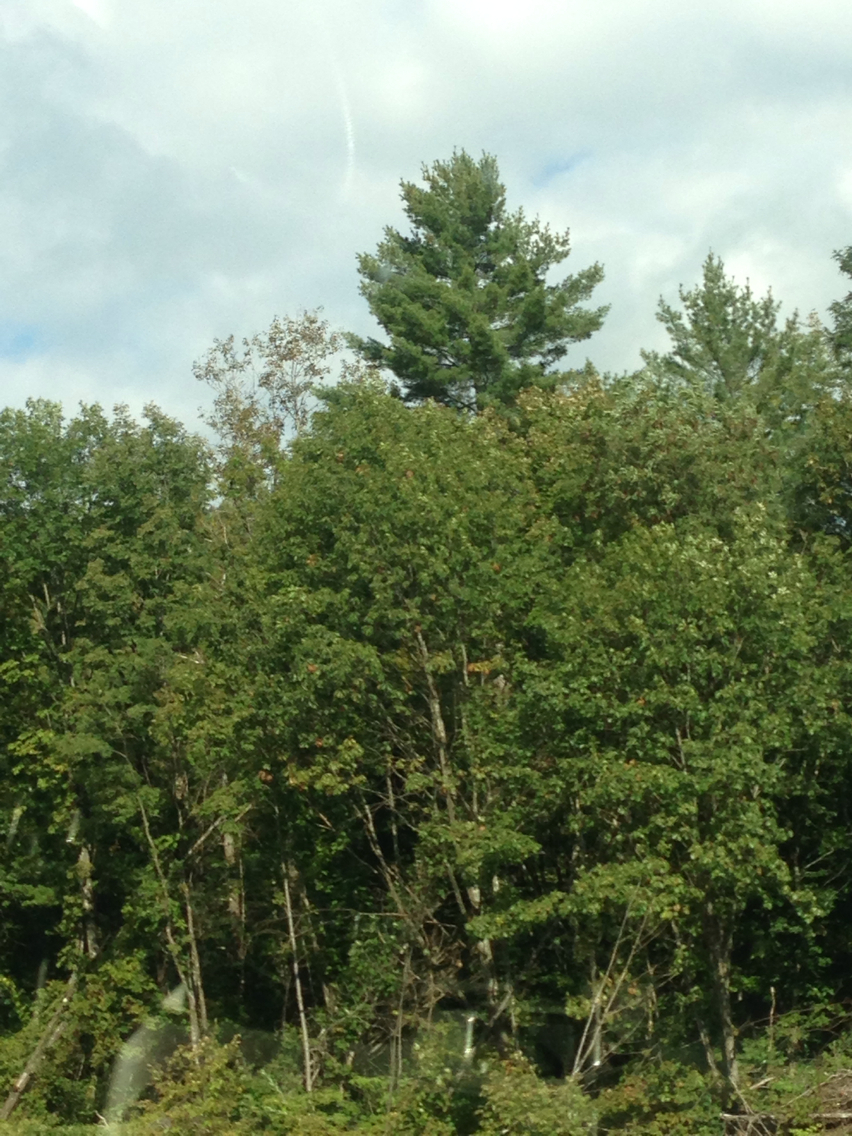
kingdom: Plantae
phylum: Tracheophyta
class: Pinopsida
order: Pinales
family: Pinaceae
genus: Pinus
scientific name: Pinus strobus
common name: Weymouth pine
